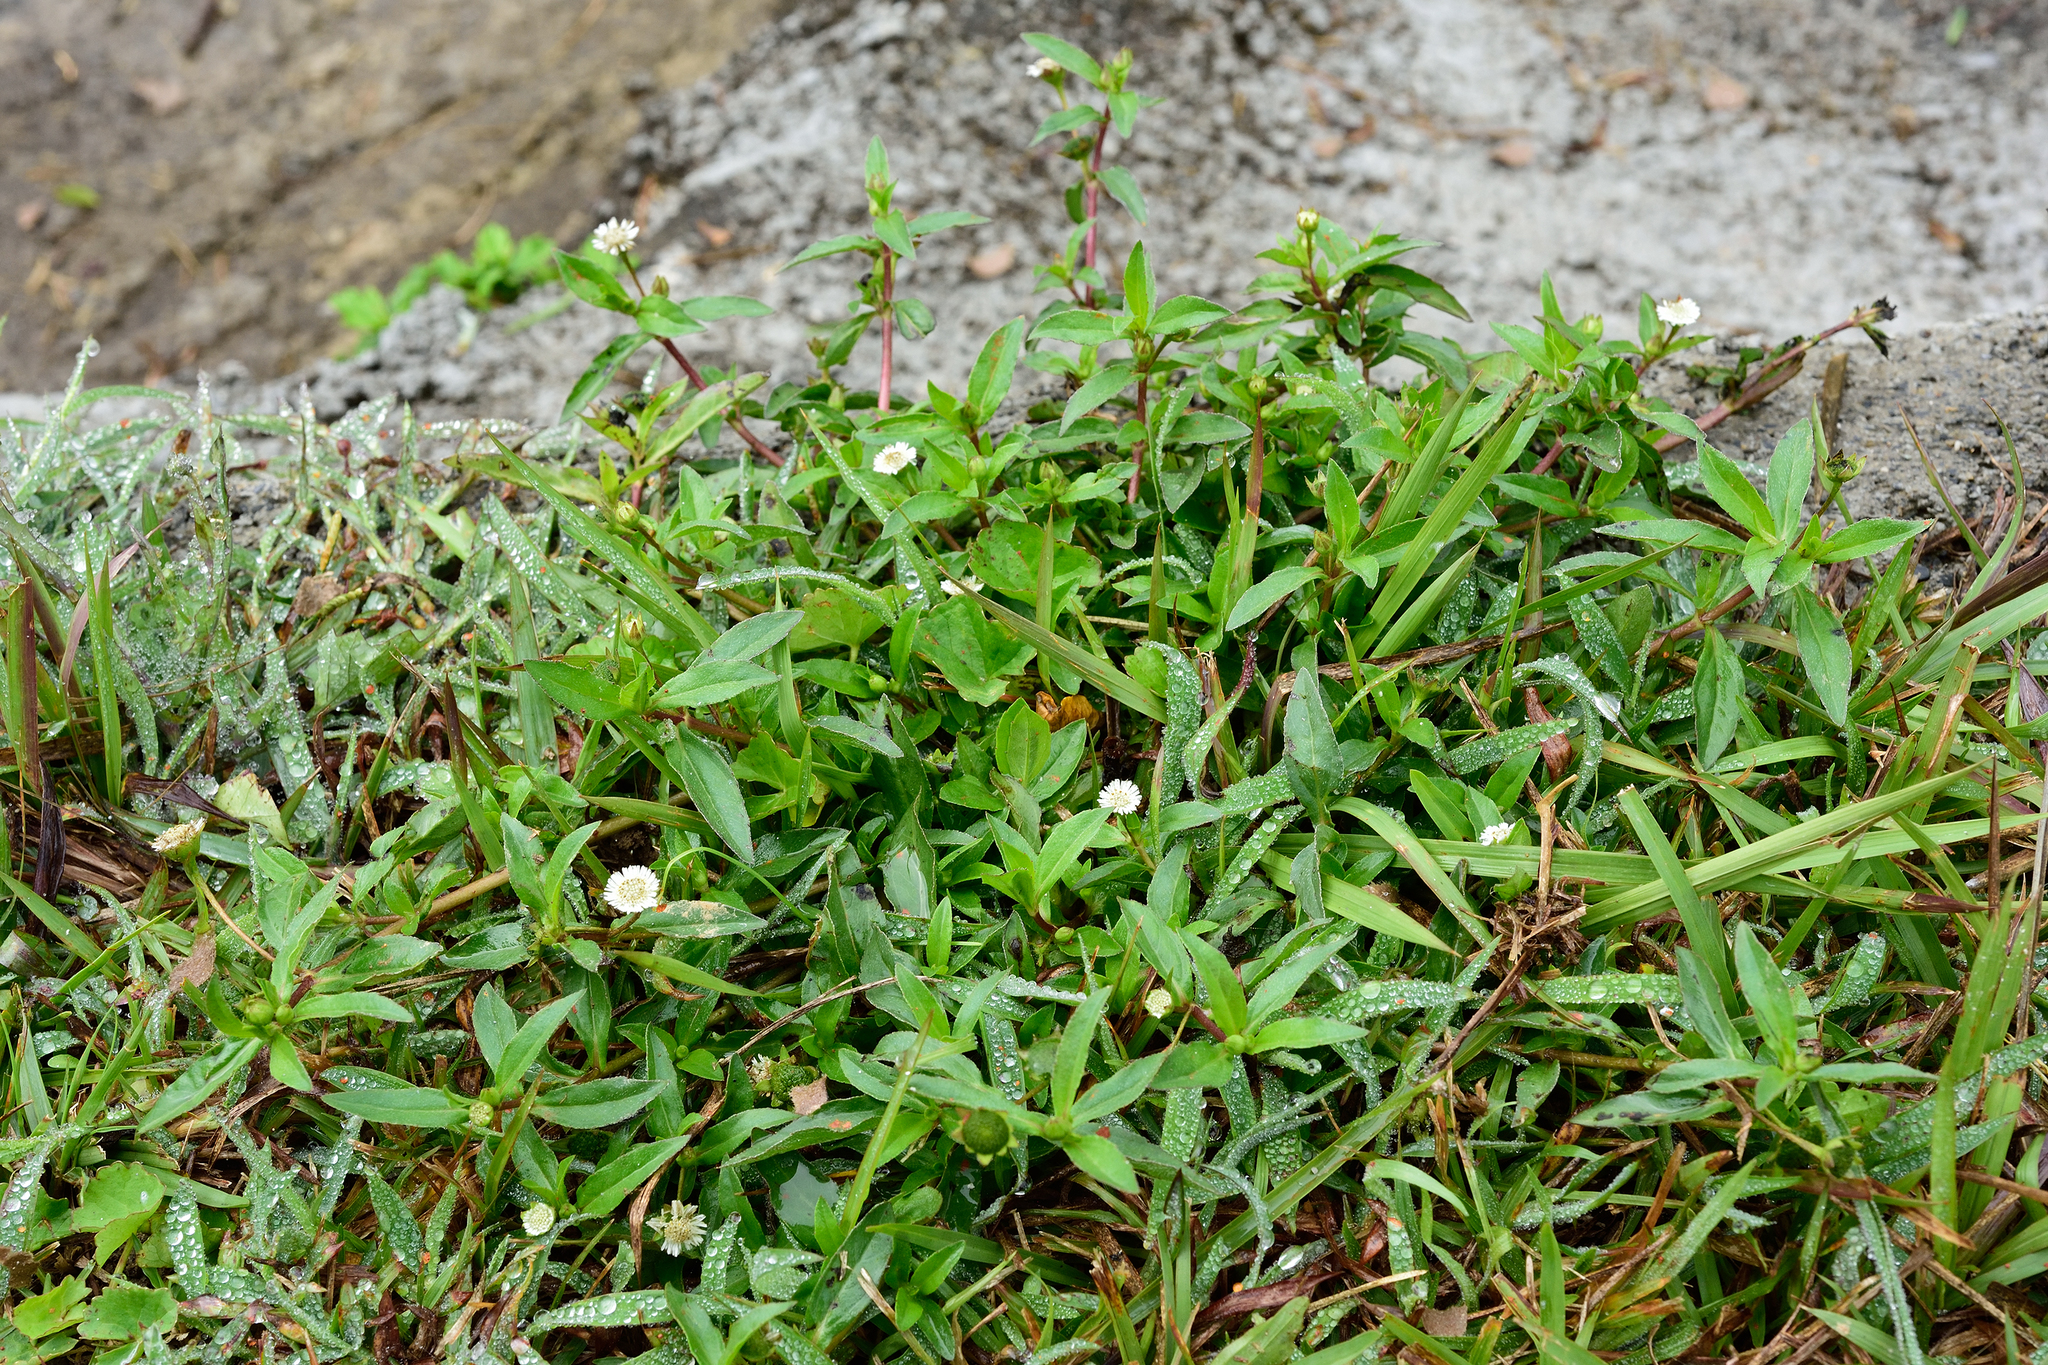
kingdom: Plantae
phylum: Tracheophyta
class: Magnoliopsida
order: Asterales
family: Asteraceae
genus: Eclipta
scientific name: Eclipta prostrata
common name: False daisy
